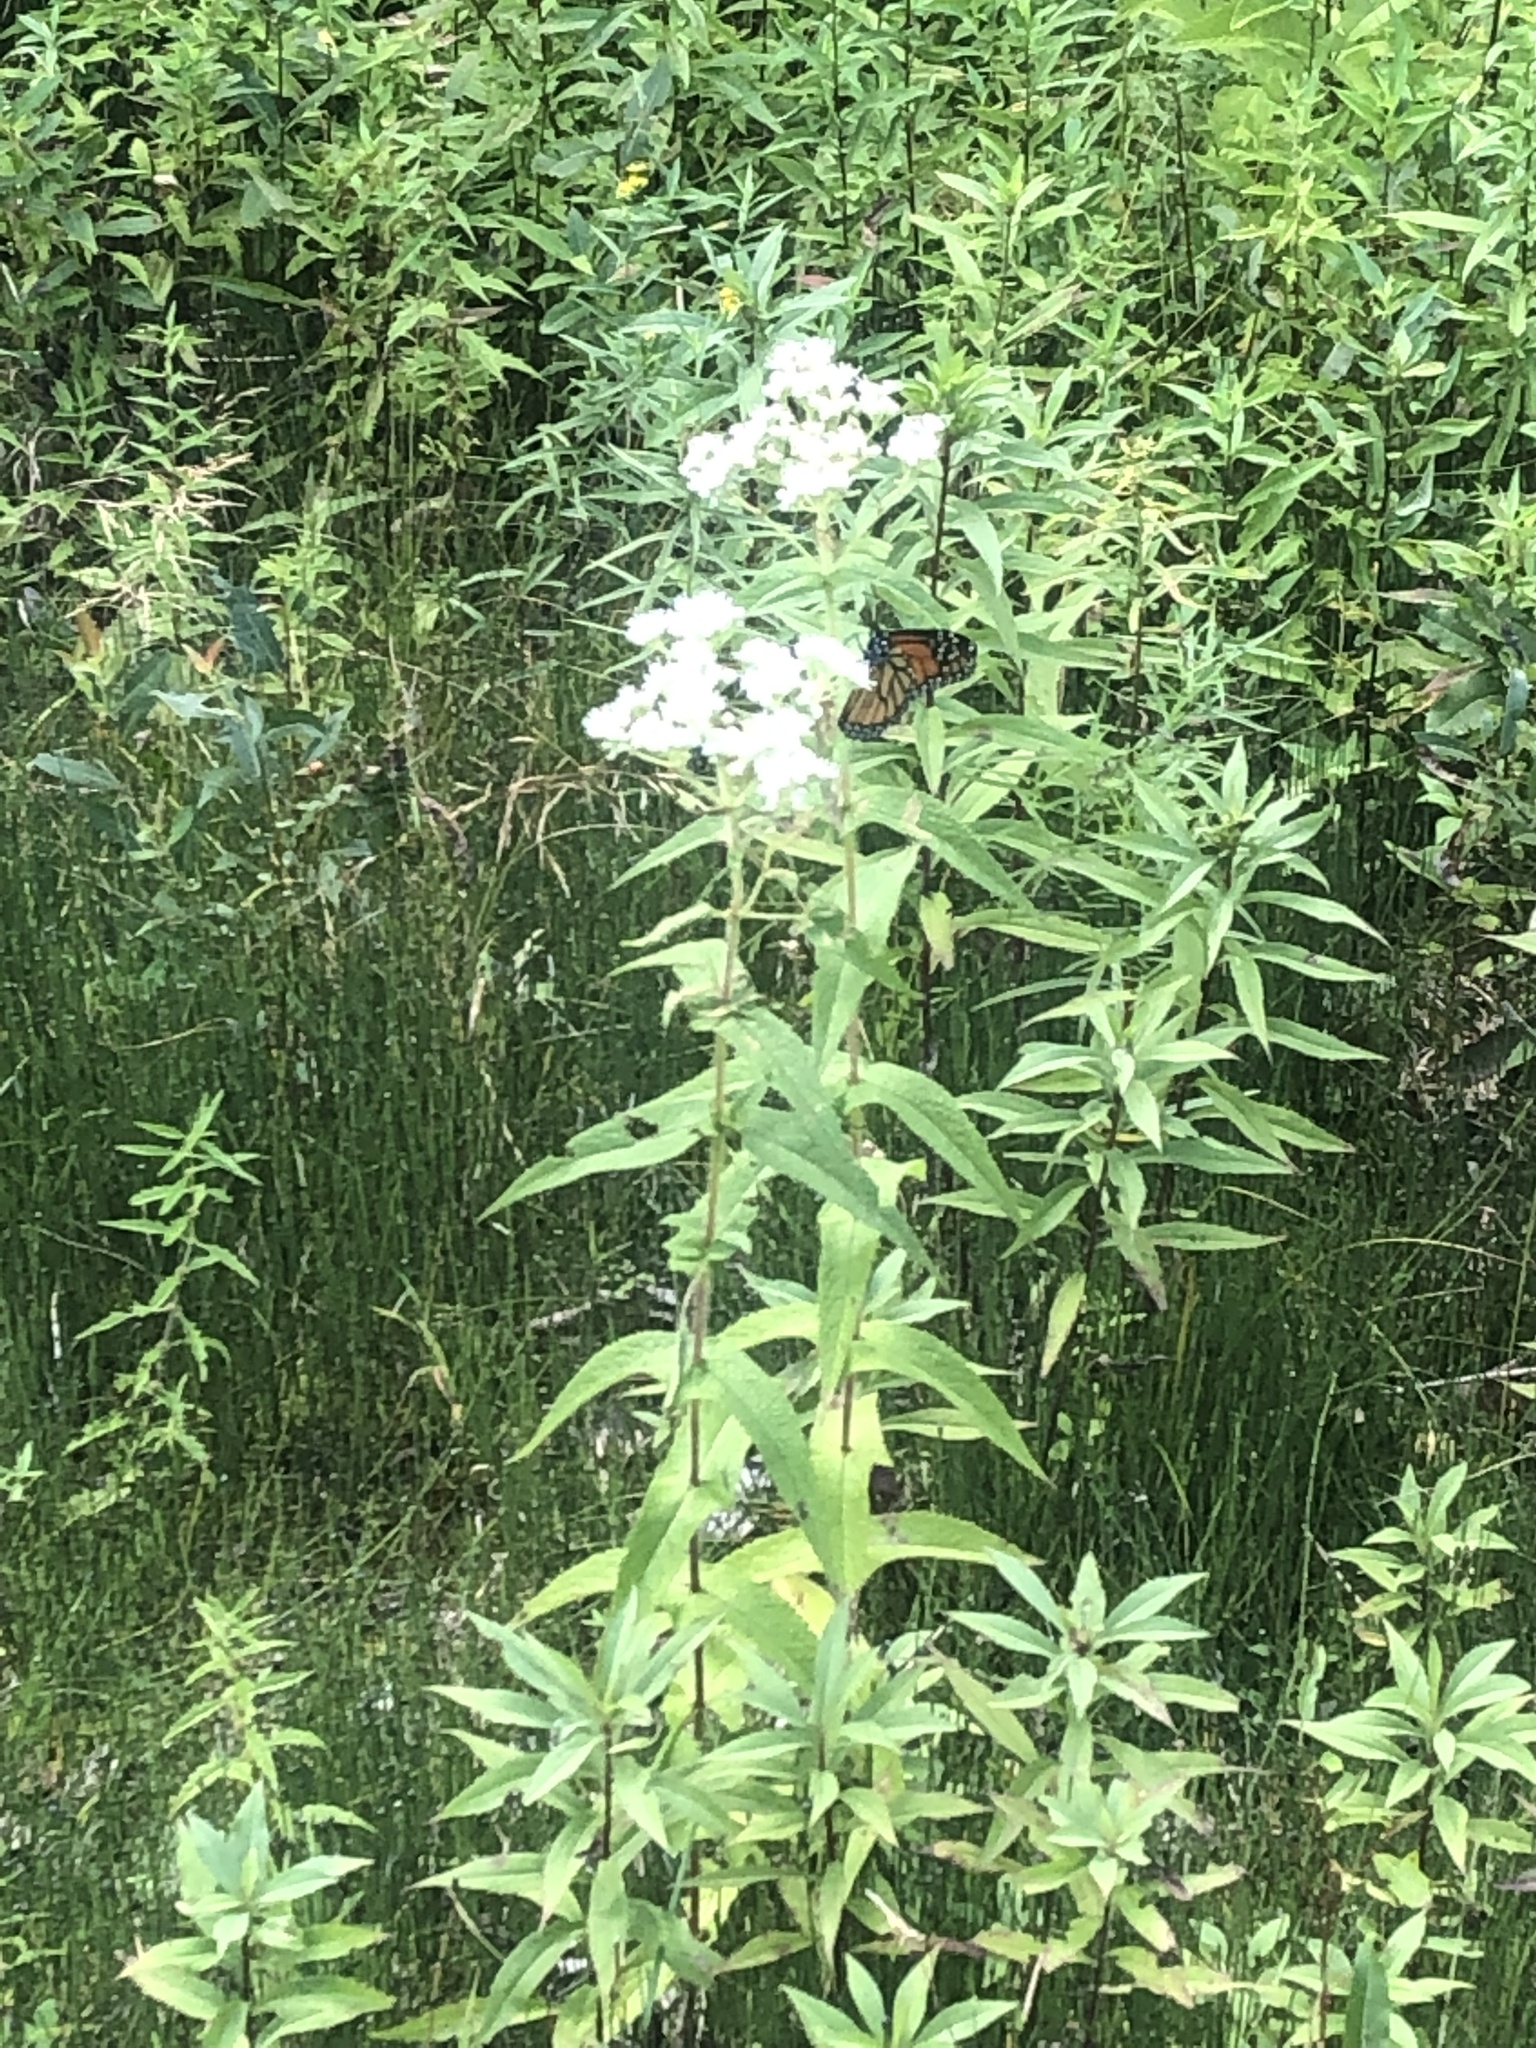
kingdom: Animalia
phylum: Arthropoda
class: Insecta
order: Lepidoptera
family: Nymphalidae
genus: Danaus
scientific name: Danaus plexippus
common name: Monarch
